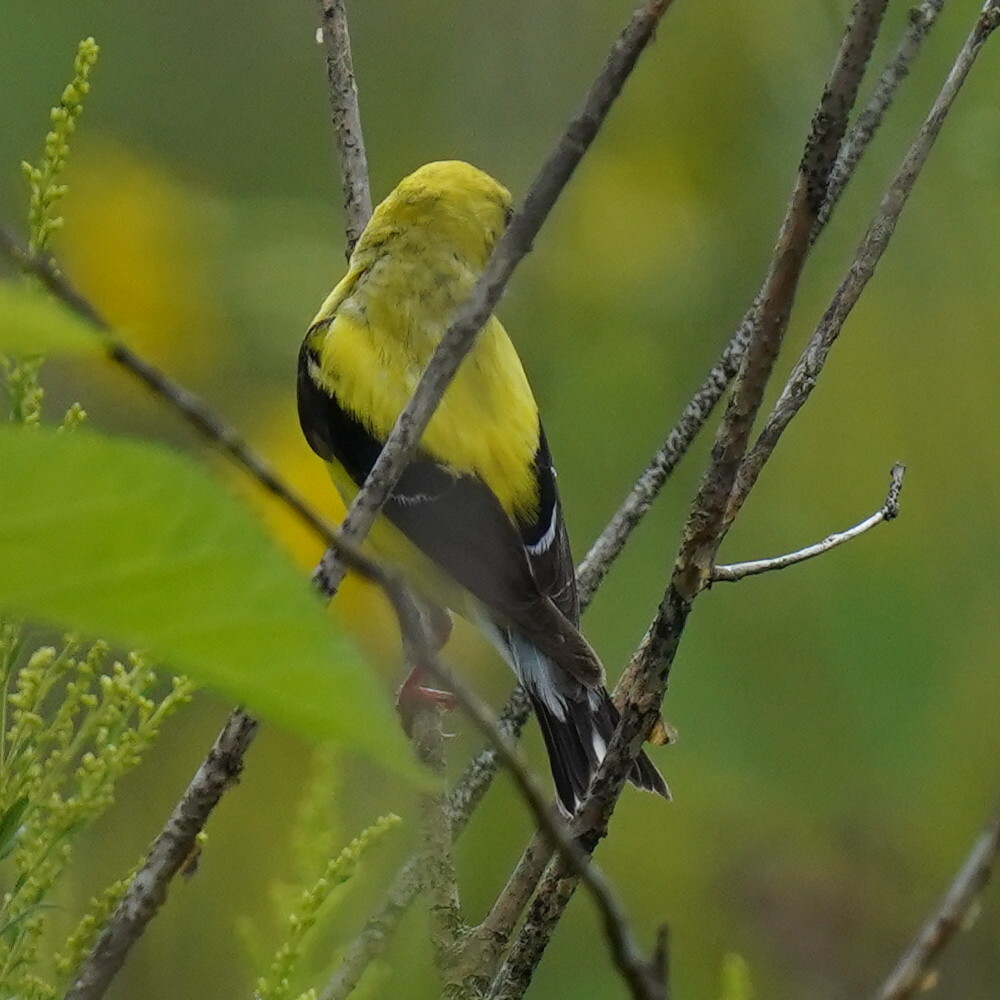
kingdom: Animalia
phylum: Chordata
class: Aves
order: Passeriformes
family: Fringillidae
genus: Spinus
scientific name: Spinus tristis
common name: American goldfinch
